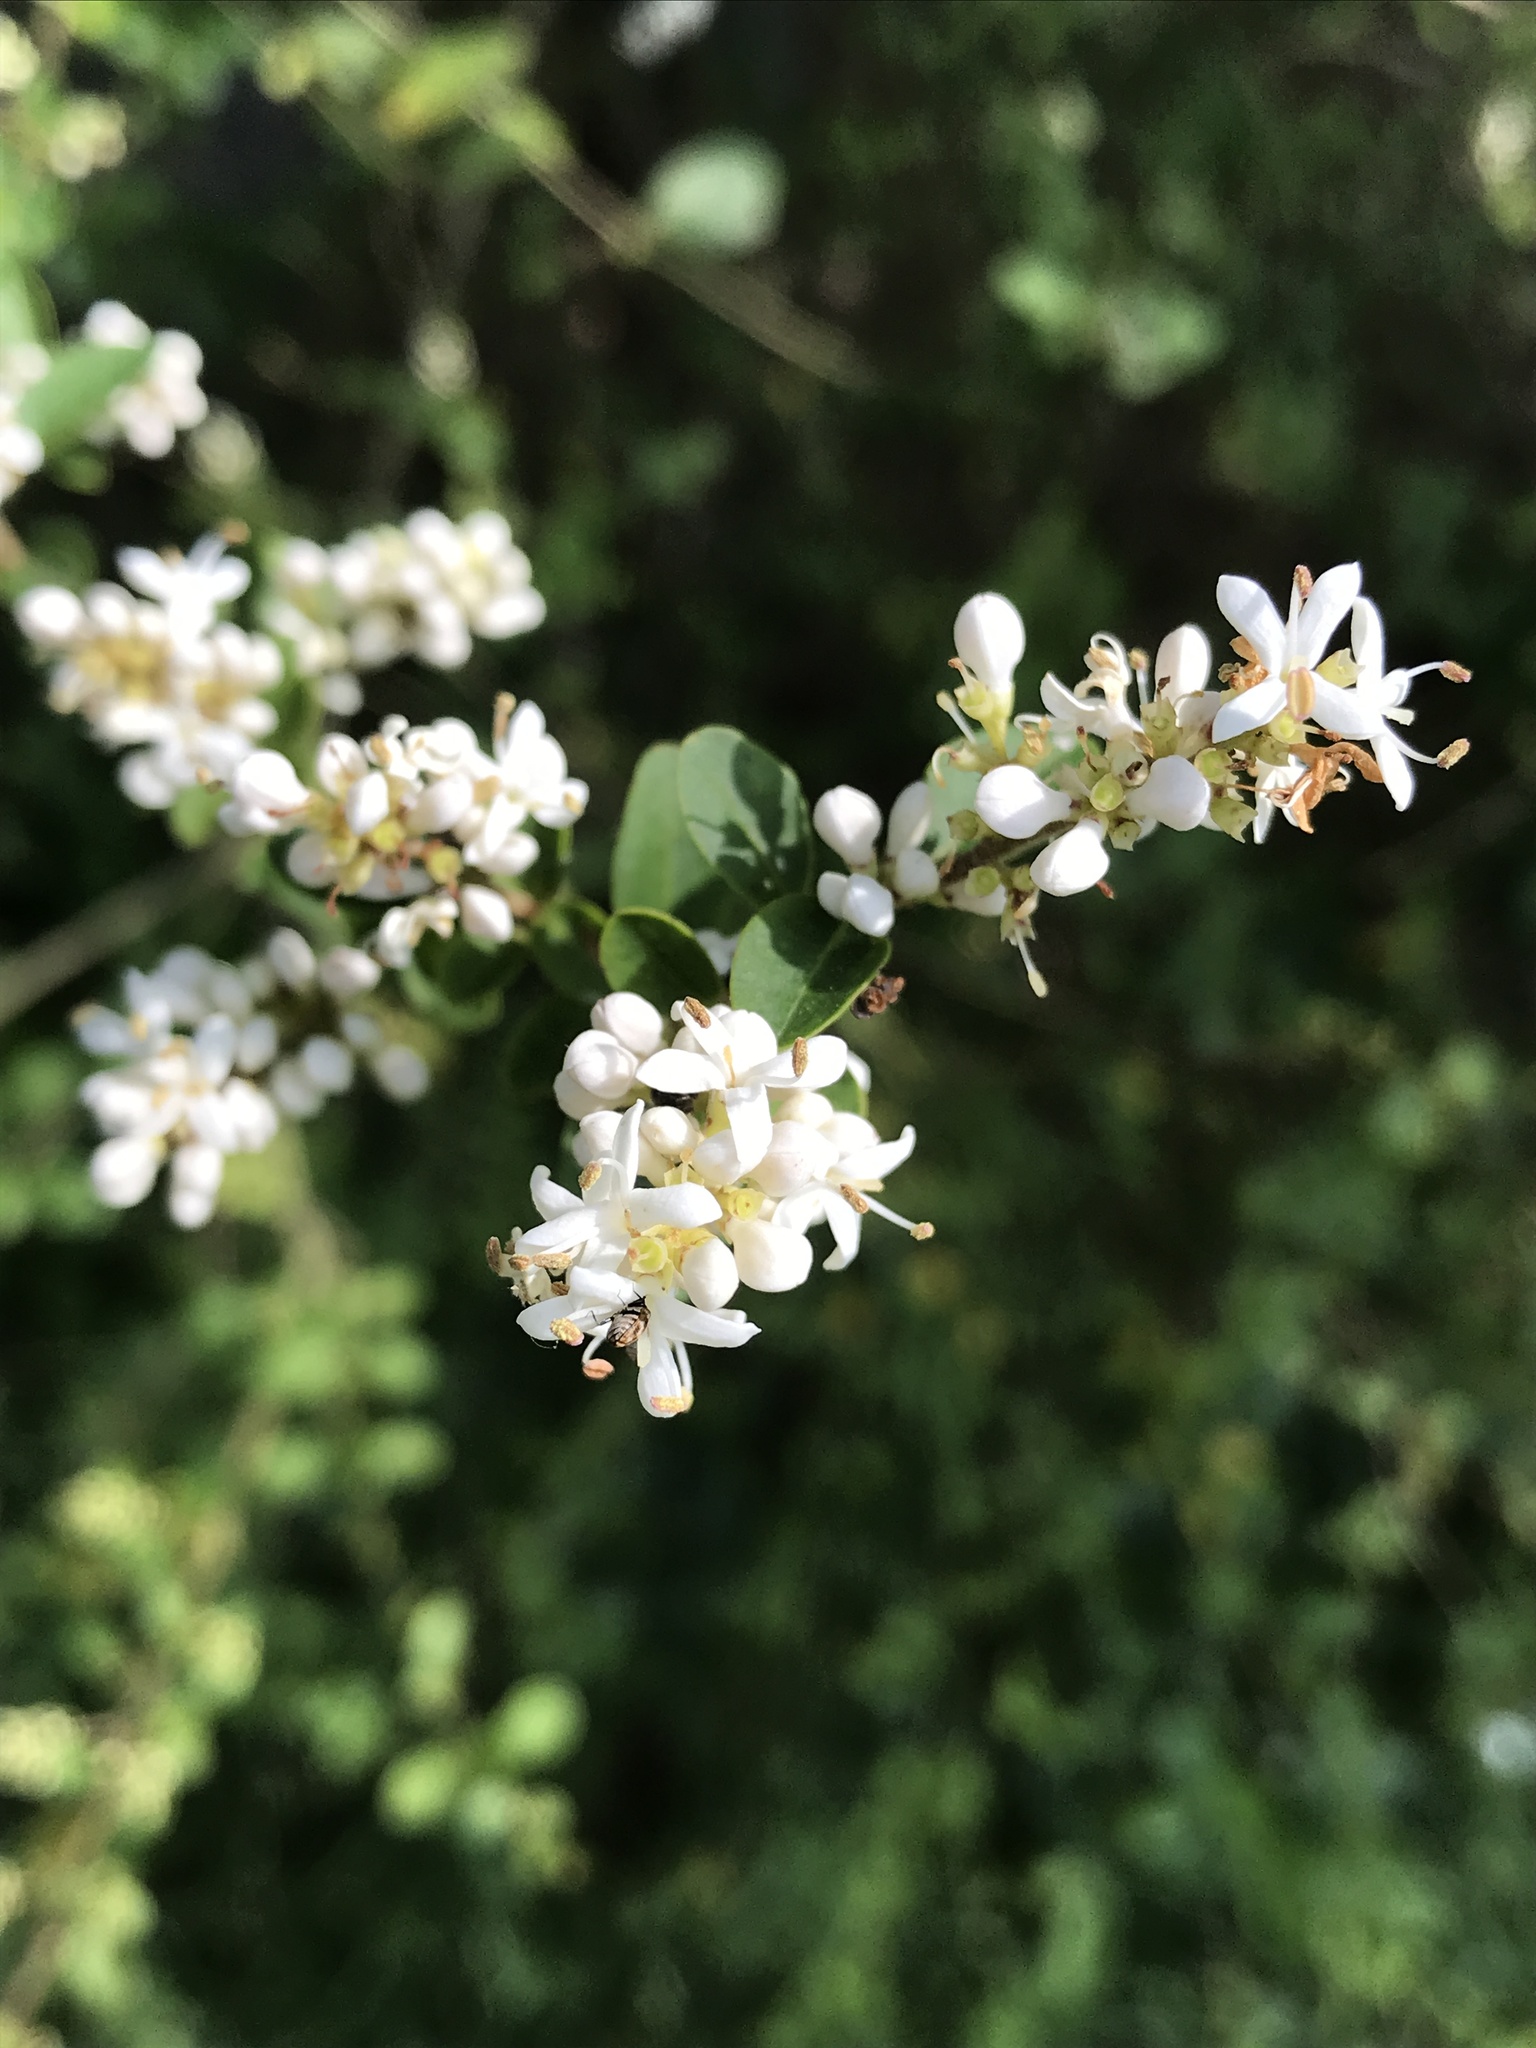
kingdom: Plantae
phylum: Tracheophyta
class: Magnoliopsida
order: Lamiales
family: Oleaceae
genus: Ligustrum
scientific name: Ligustrum sinense
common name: Chinese privet
